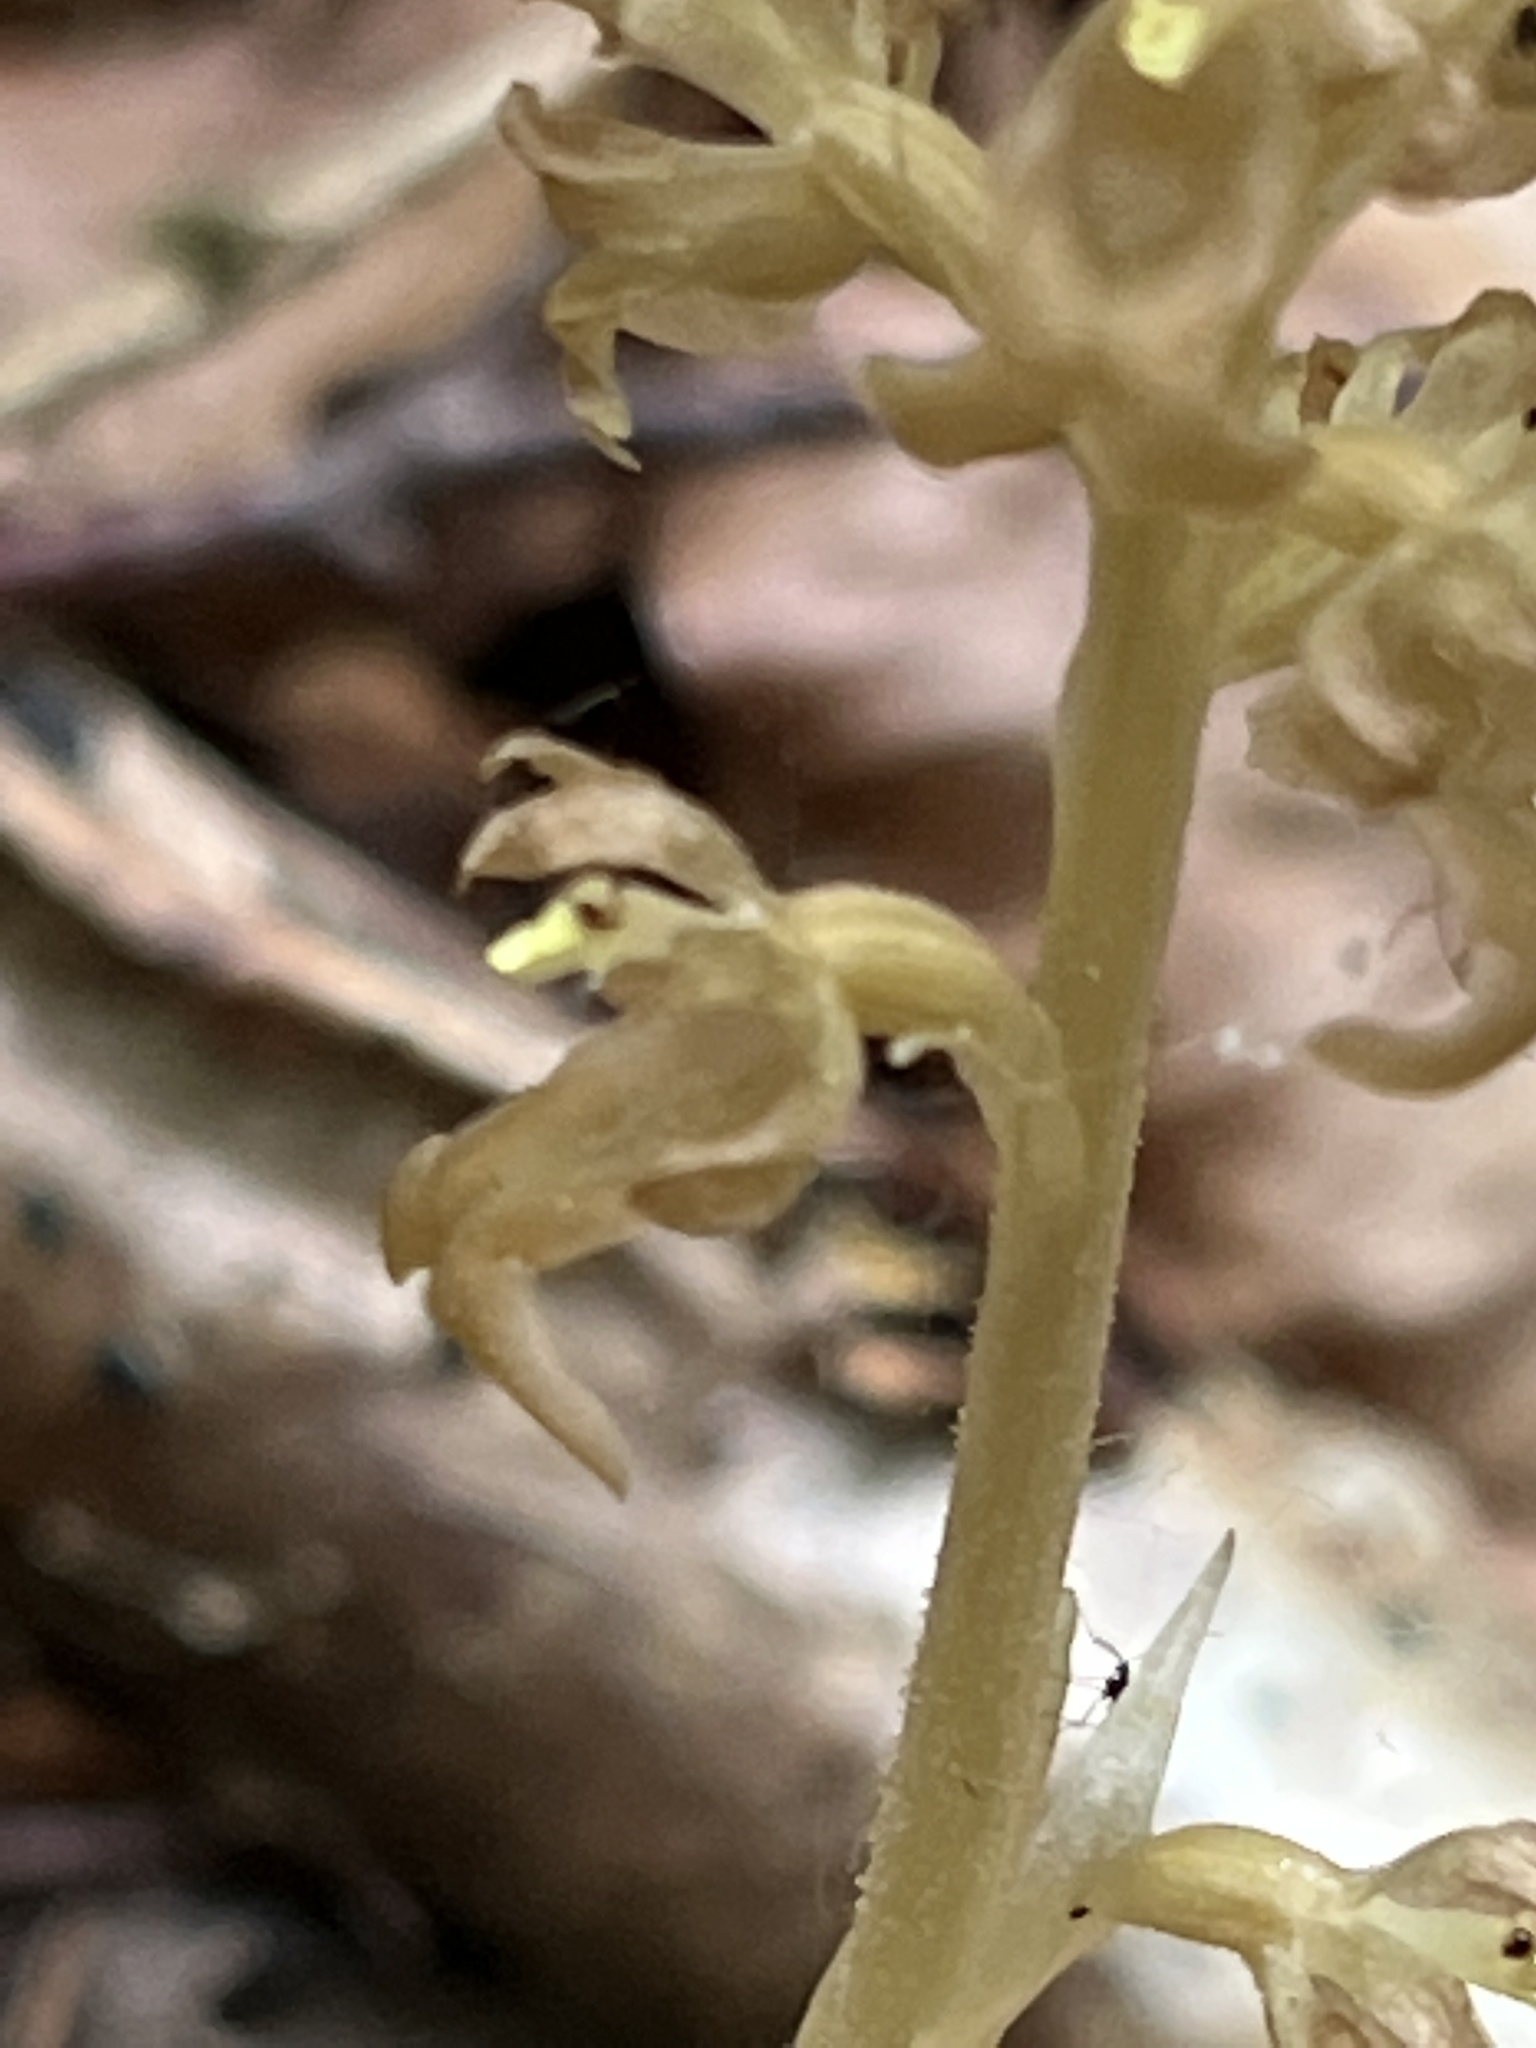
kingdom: Plantae
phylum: Tracheophyta
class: Liliopsida
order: Asparagales
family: Orchidaceae
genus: Neottia
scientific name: Neottia nidus-avis
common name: Bird's-nest orchid
